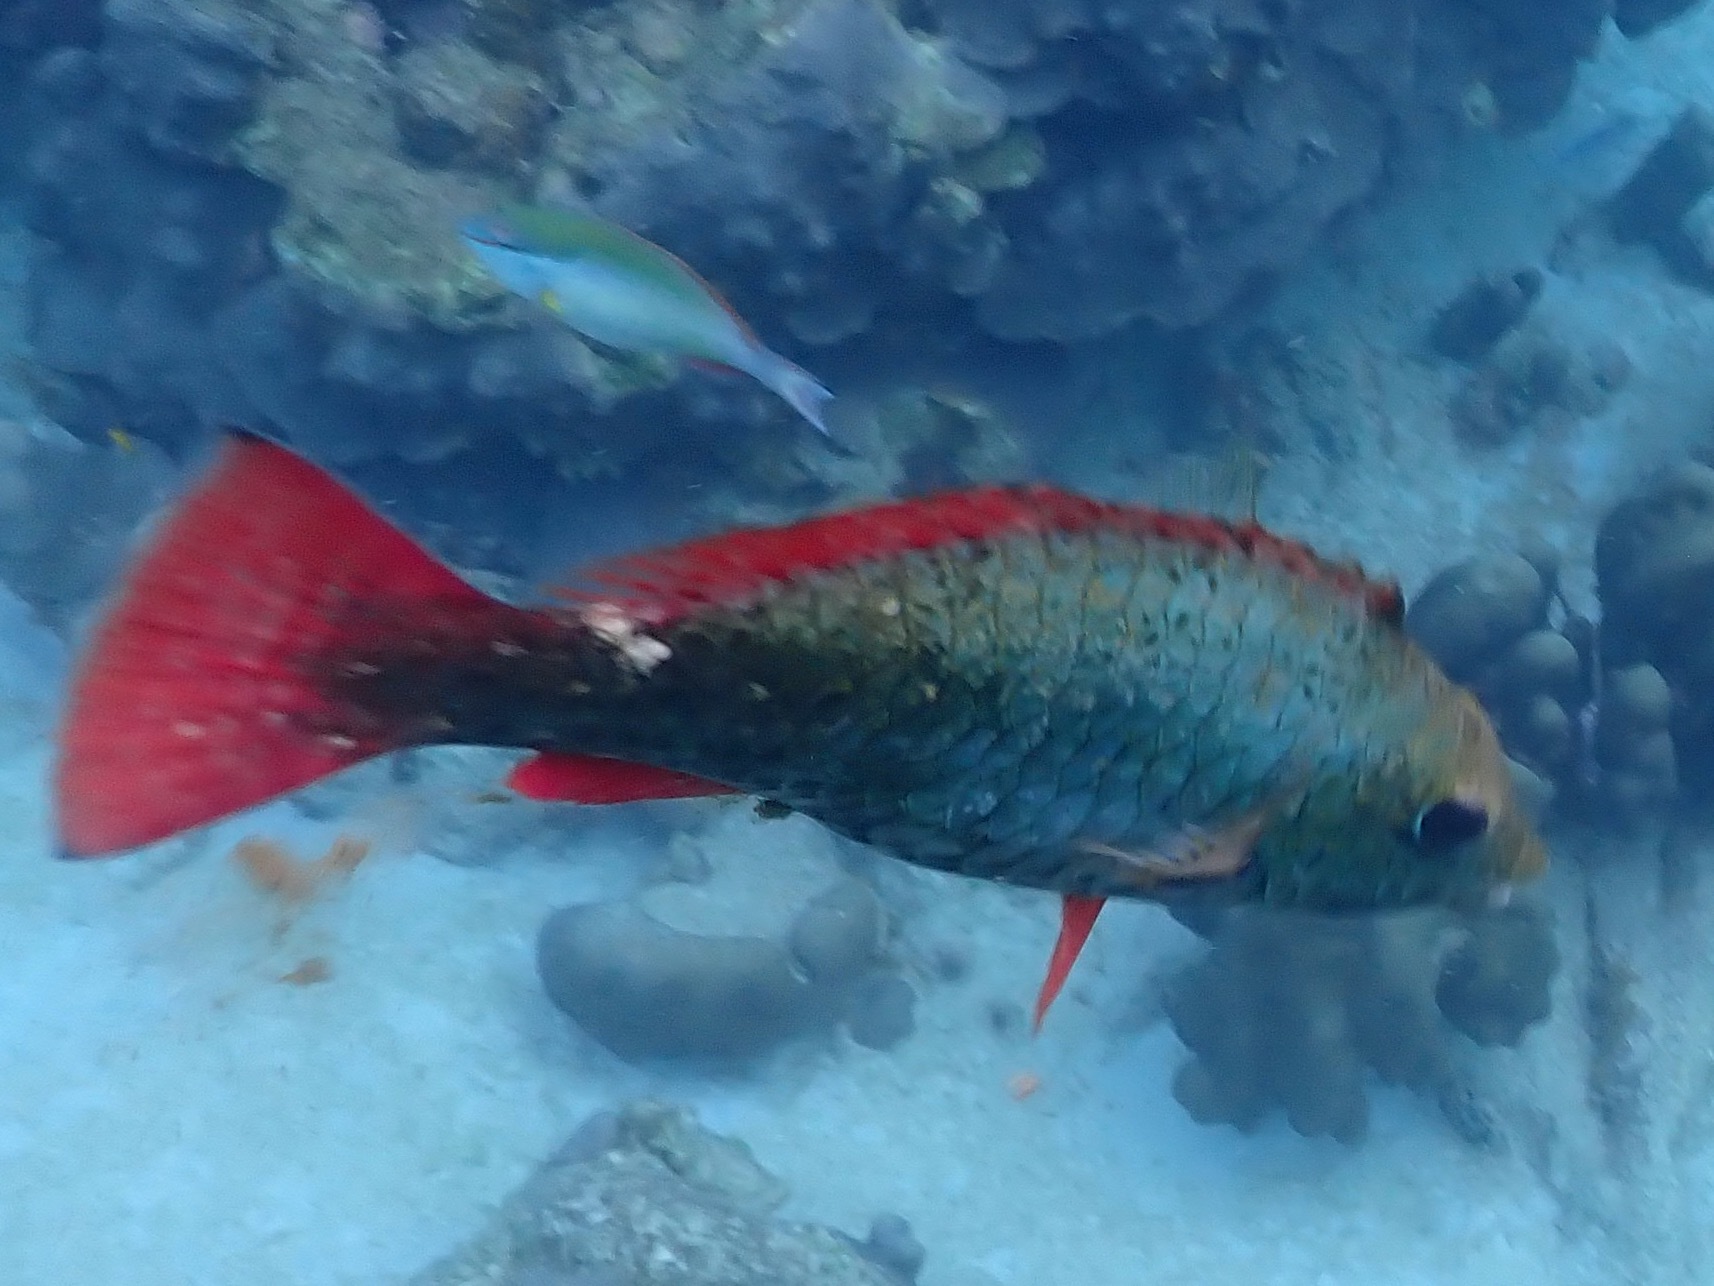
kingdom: Animalia
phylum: Chordata
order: Perciformes
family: Scaridae
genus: Sparisoma
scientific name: Sparisoma aurofrenatum
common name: Redband parrotfish
